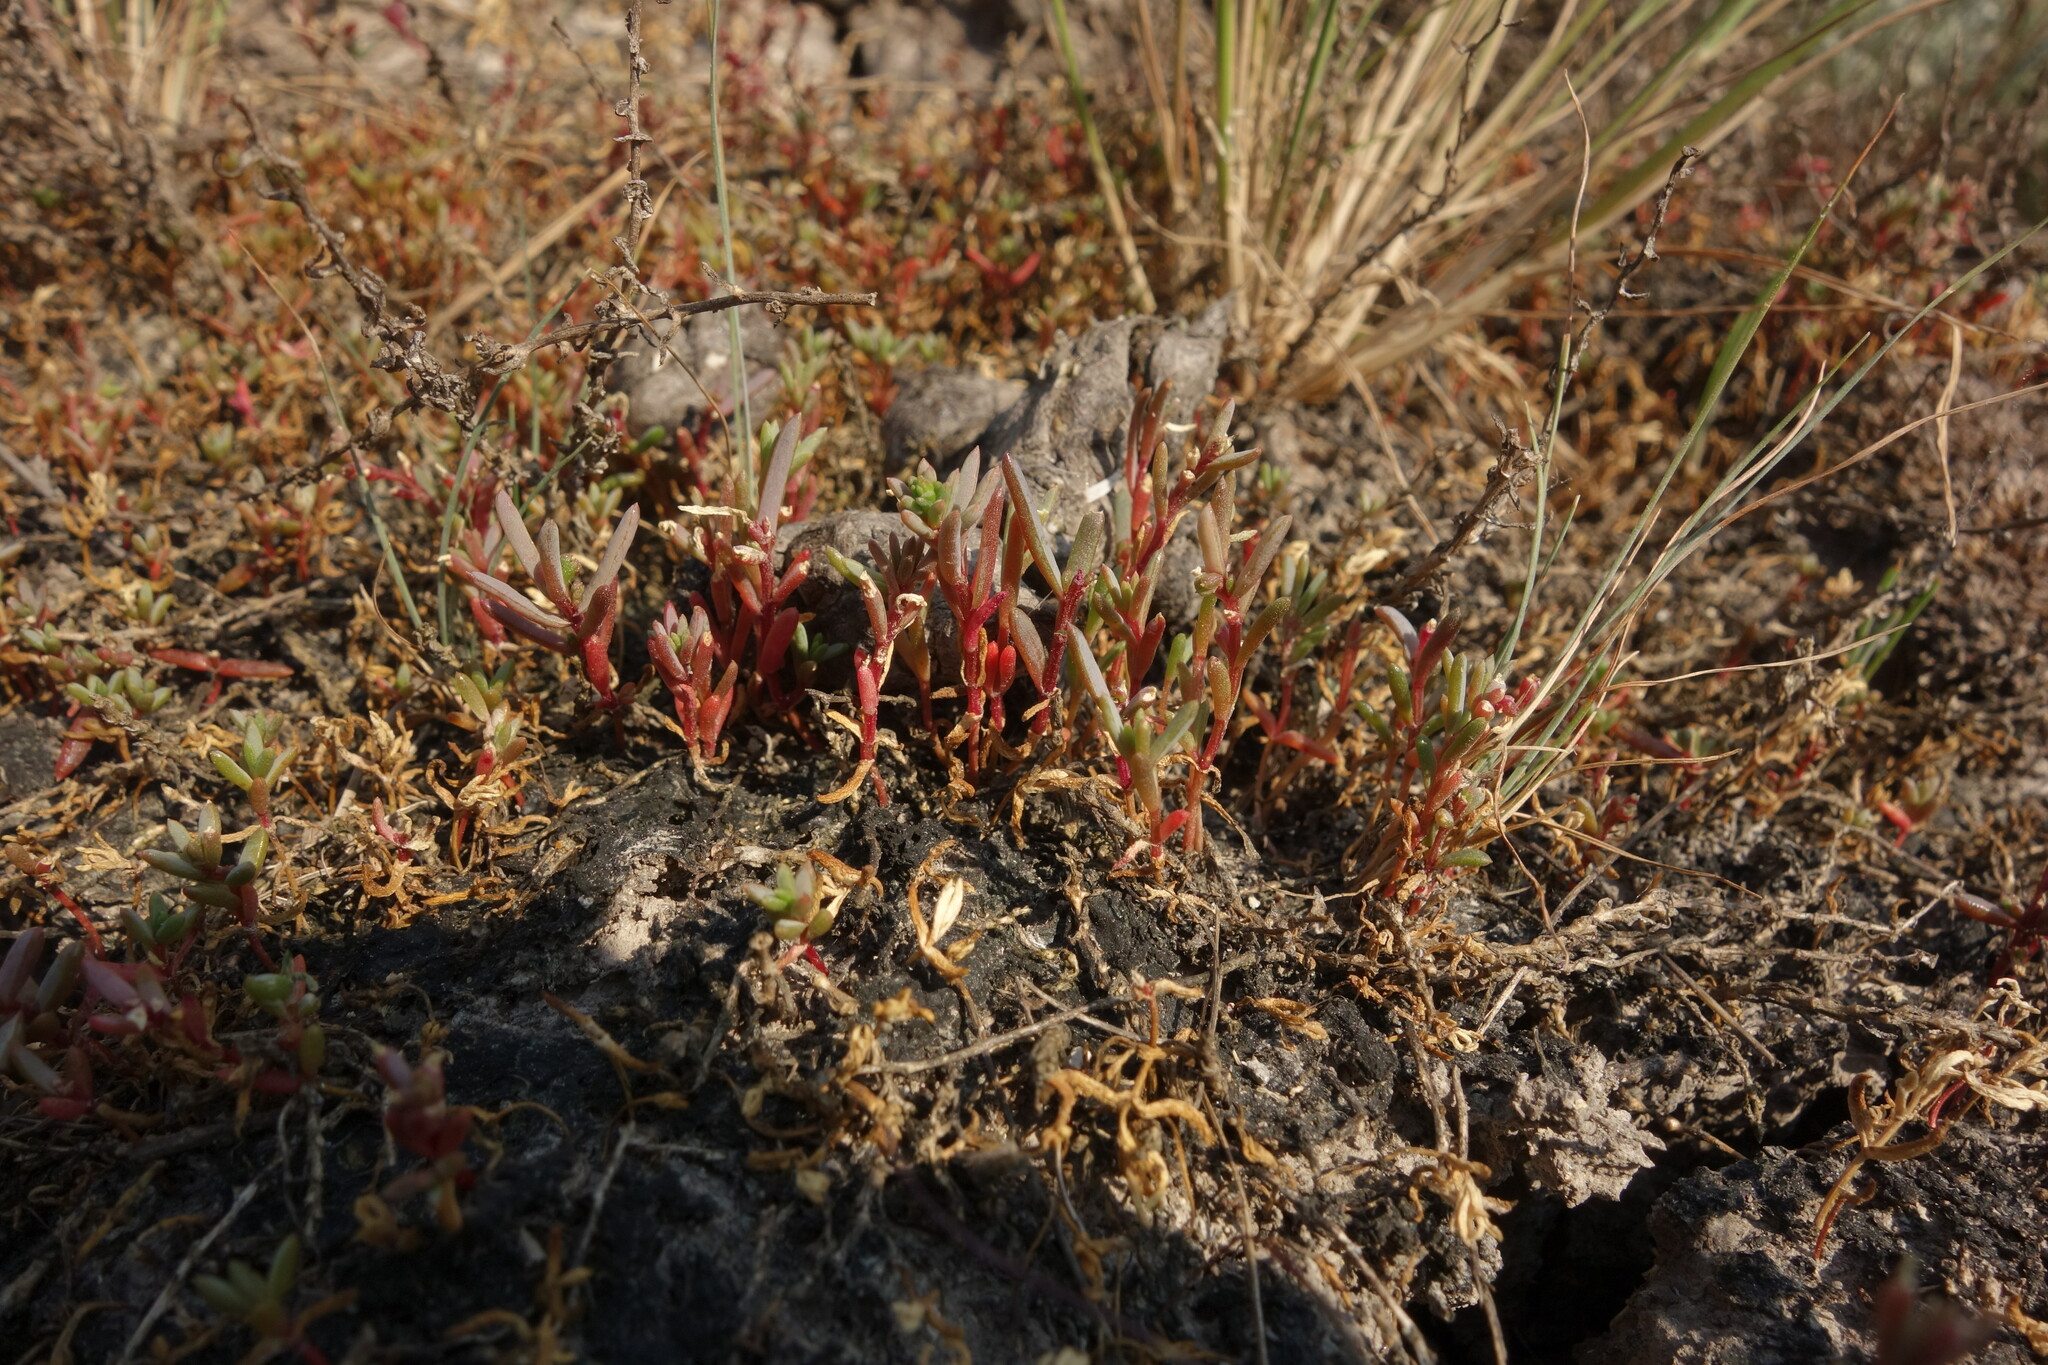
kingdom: Plantae
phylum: Tracheophyta
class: Magnoliopsida
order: Caryophyllales
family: Amaranthaceae
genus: Suaeda
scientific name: Suaeda prostrata
